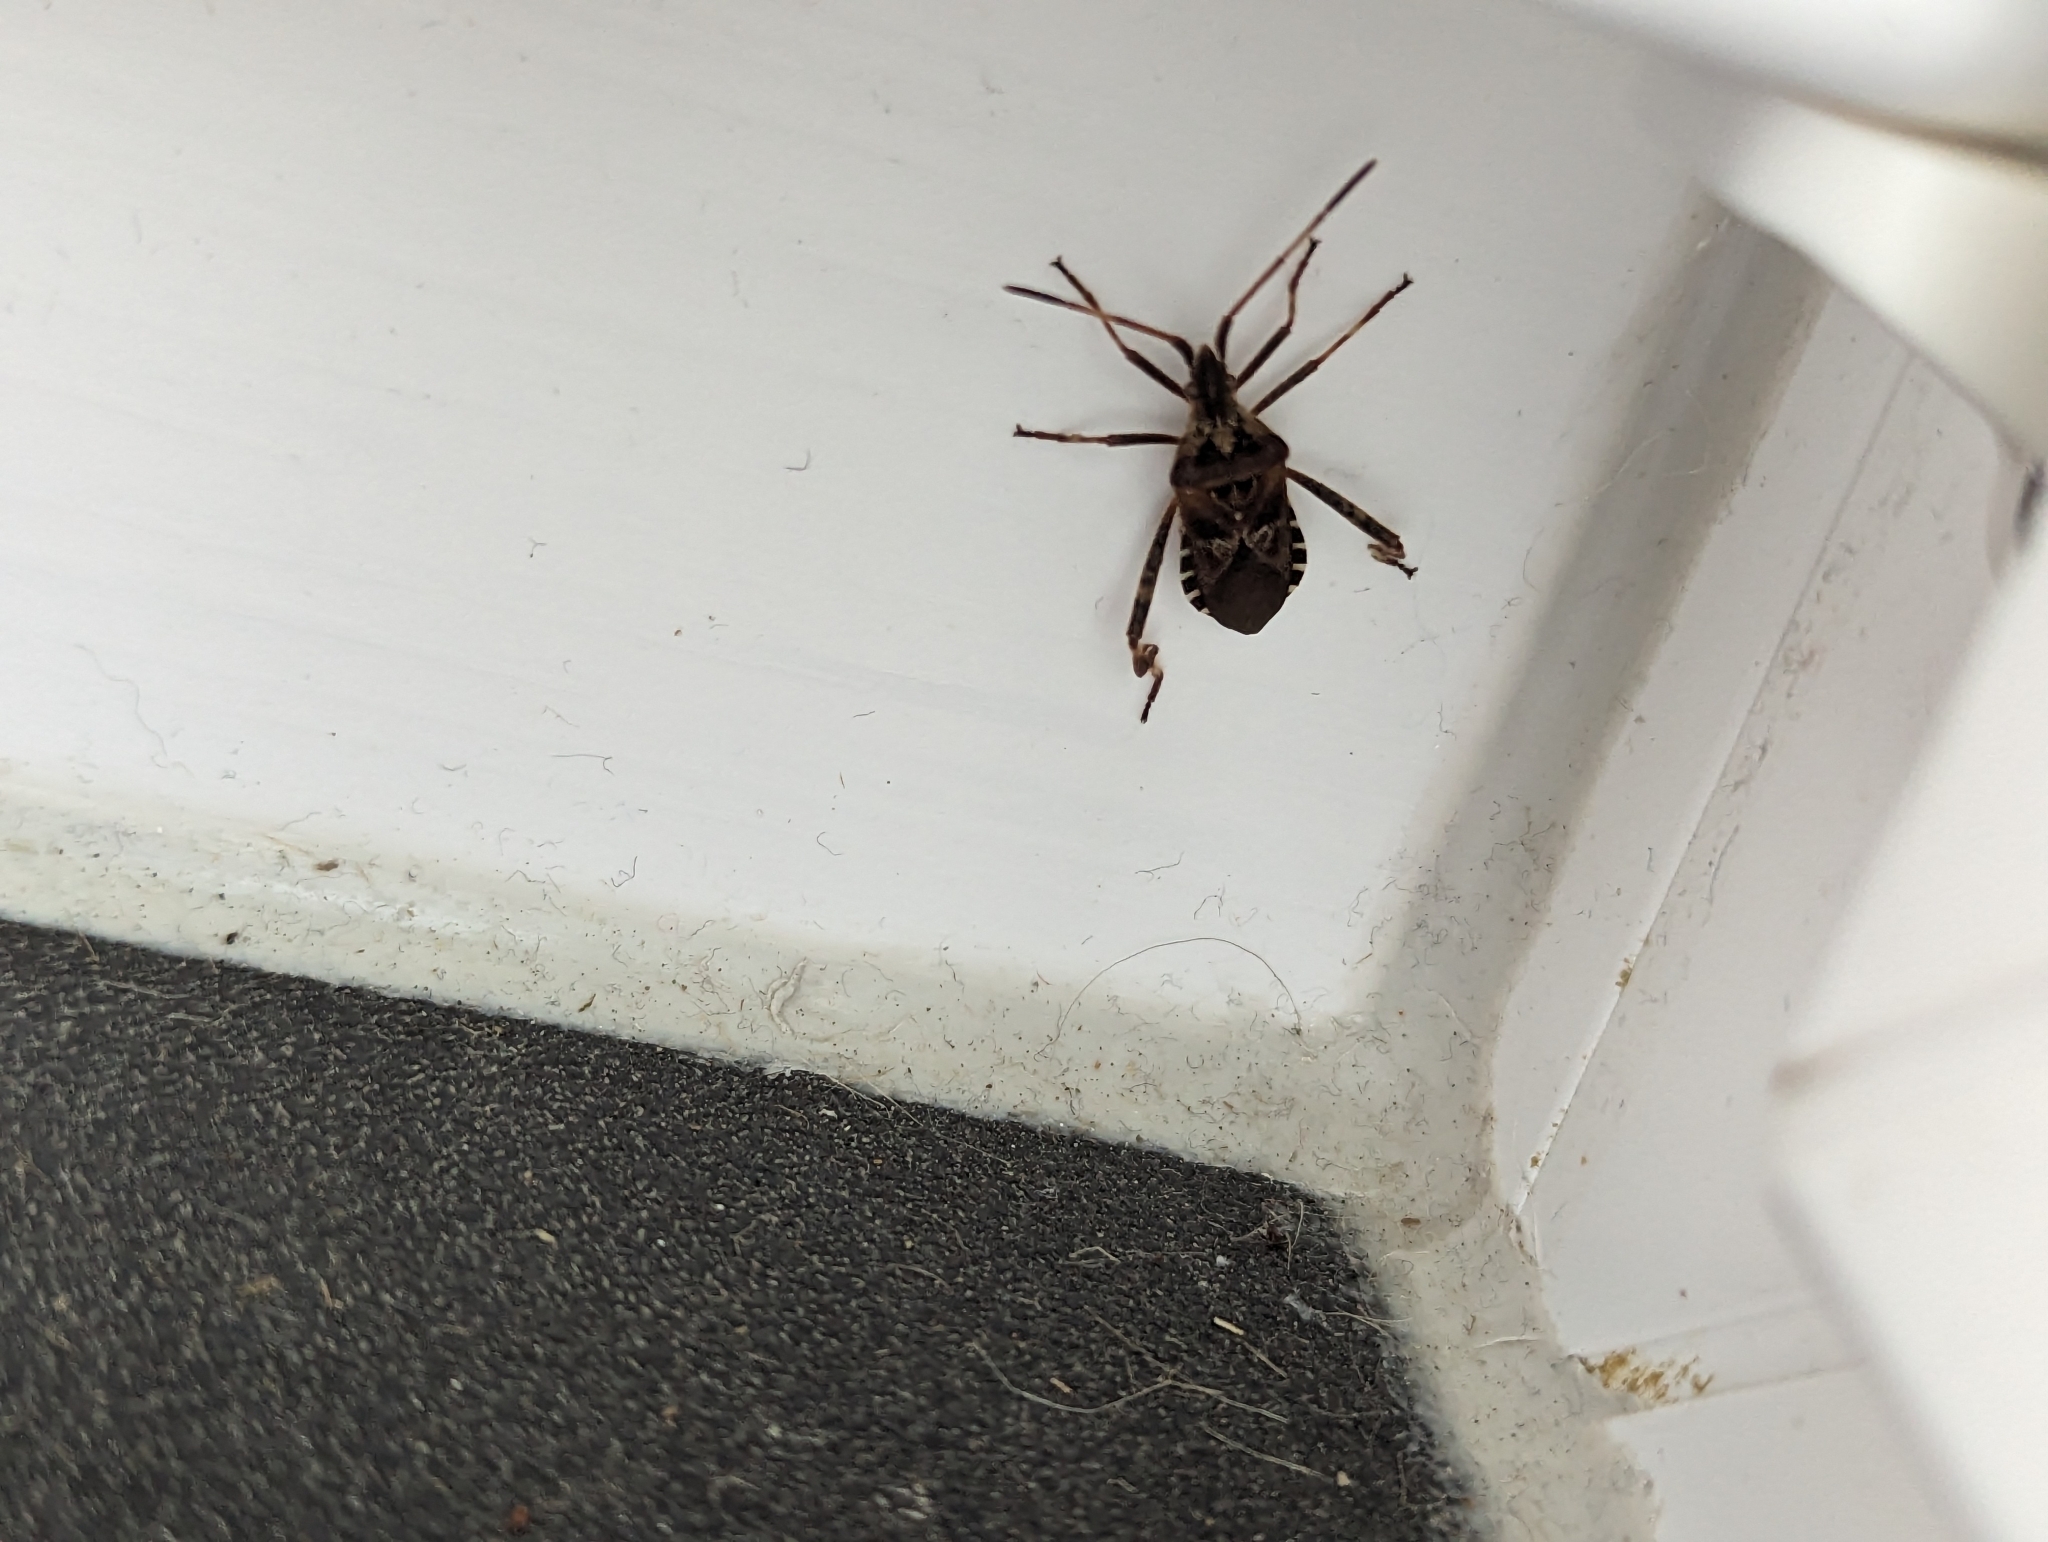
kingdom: Animalia
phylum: Arthropoda
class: Insecta
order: Hemiptera
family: Coreidae
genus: Leptoglossus
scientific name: Leptoglossus occidentalis
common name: Western conifer-seed bug
